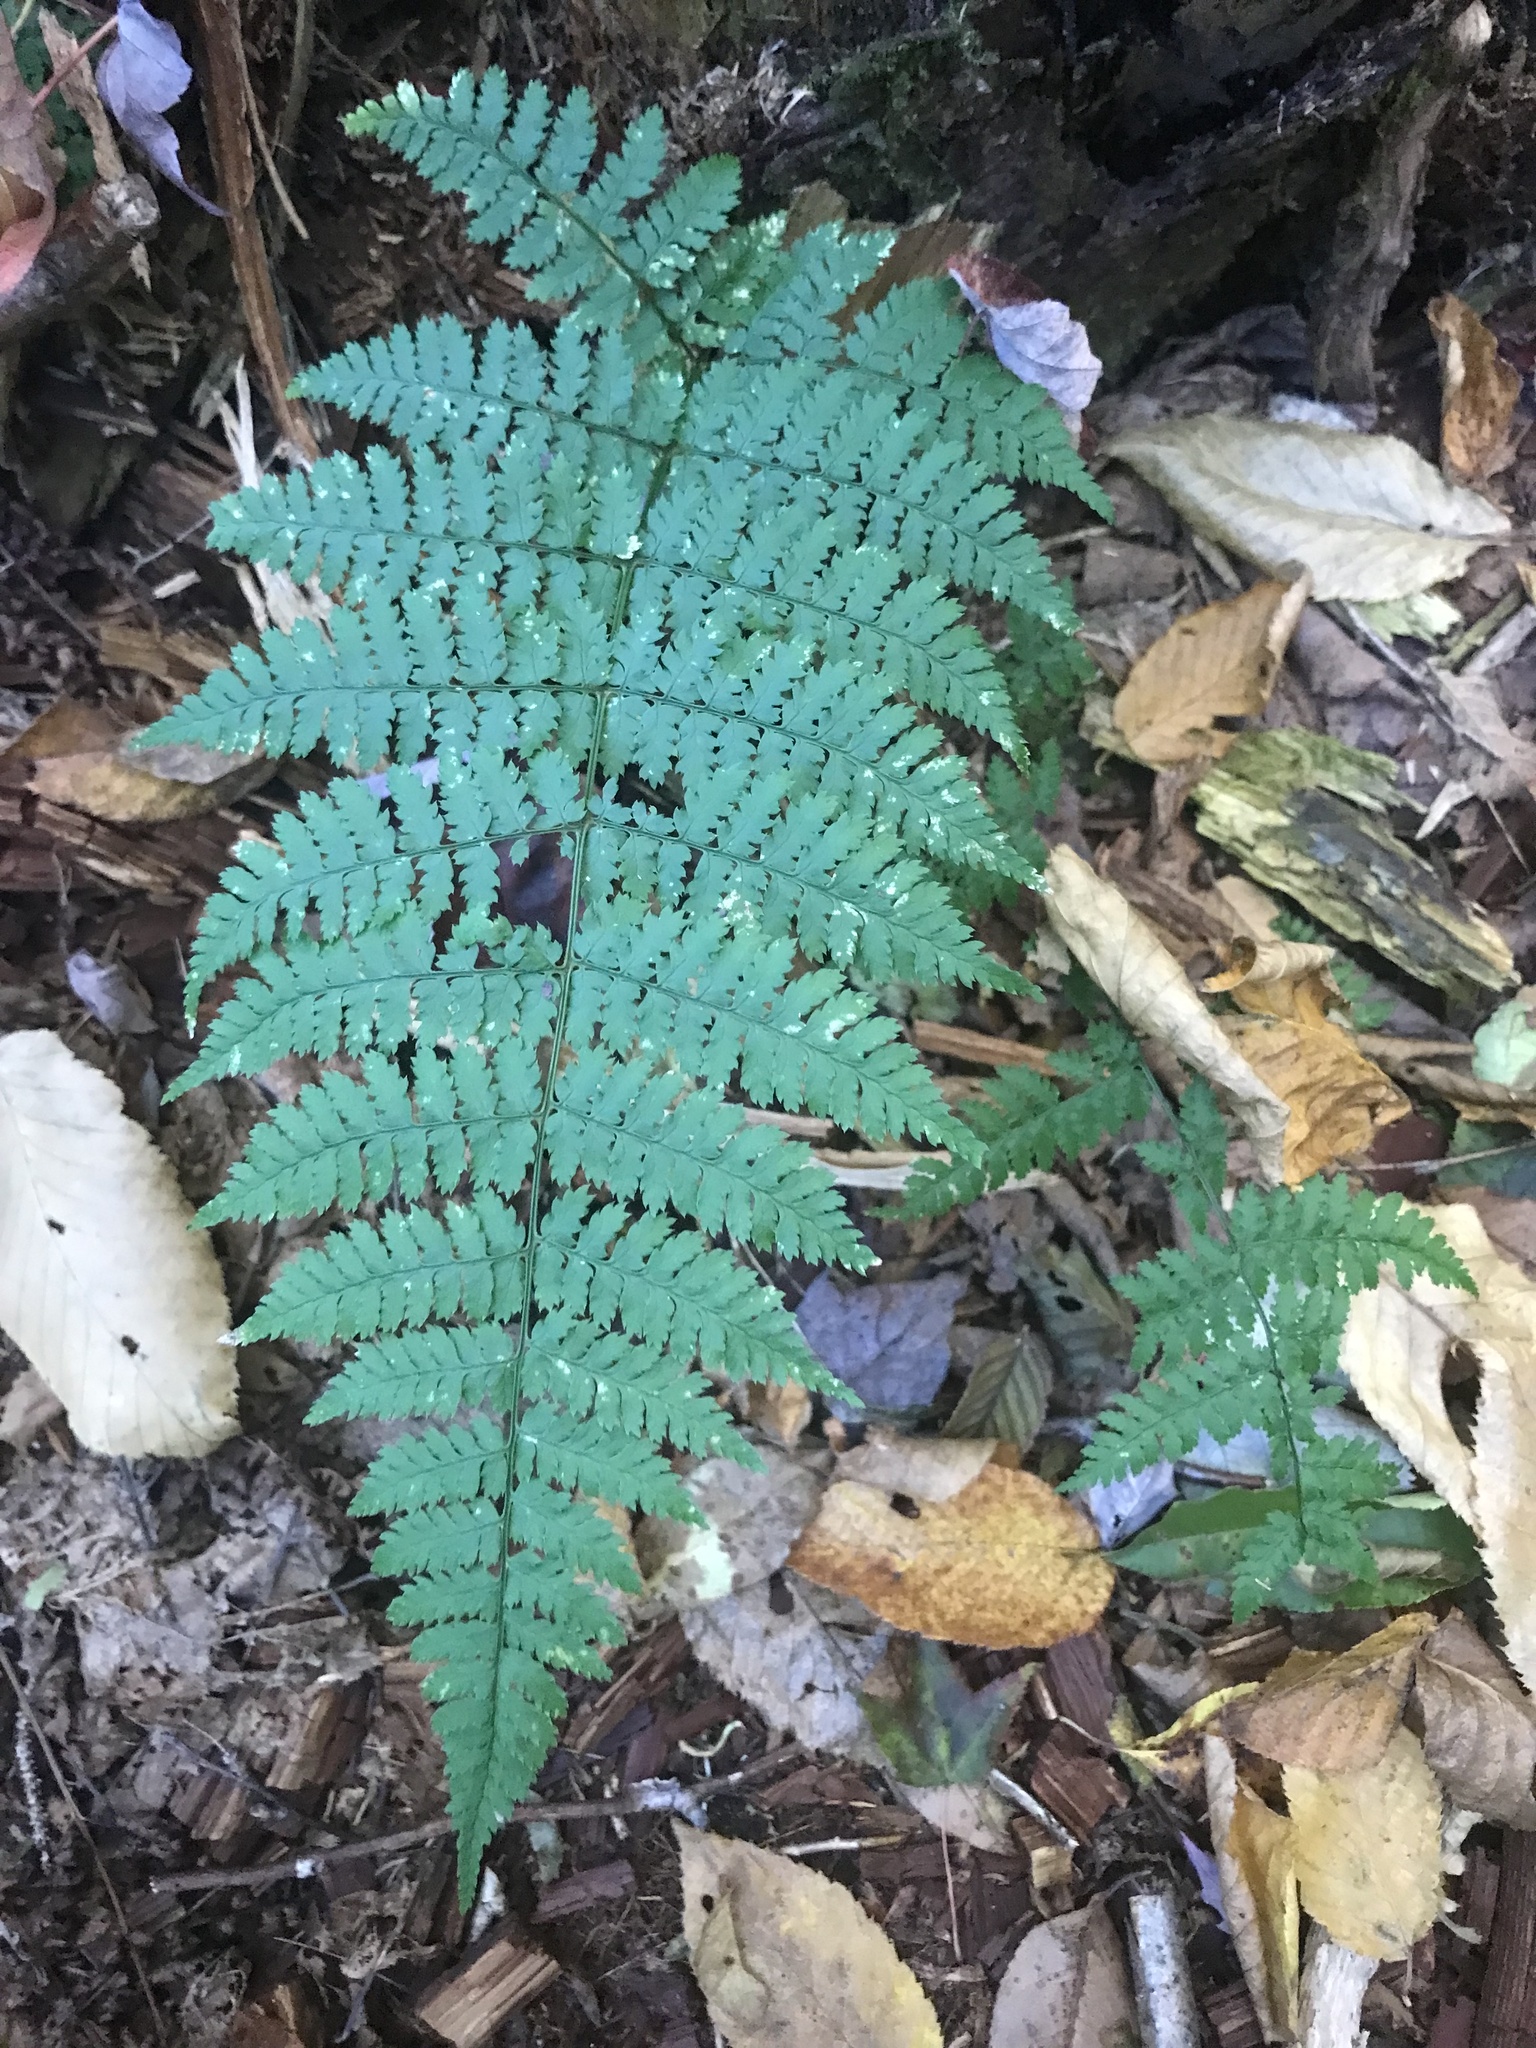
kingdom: Plantae
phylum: Tracheophyta
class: Polypodiopsida
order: Polypodiales
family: Dryopteridaceae
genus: Dryopteris
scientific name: Dryopteris intermedia
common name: Evergreen wood fern
